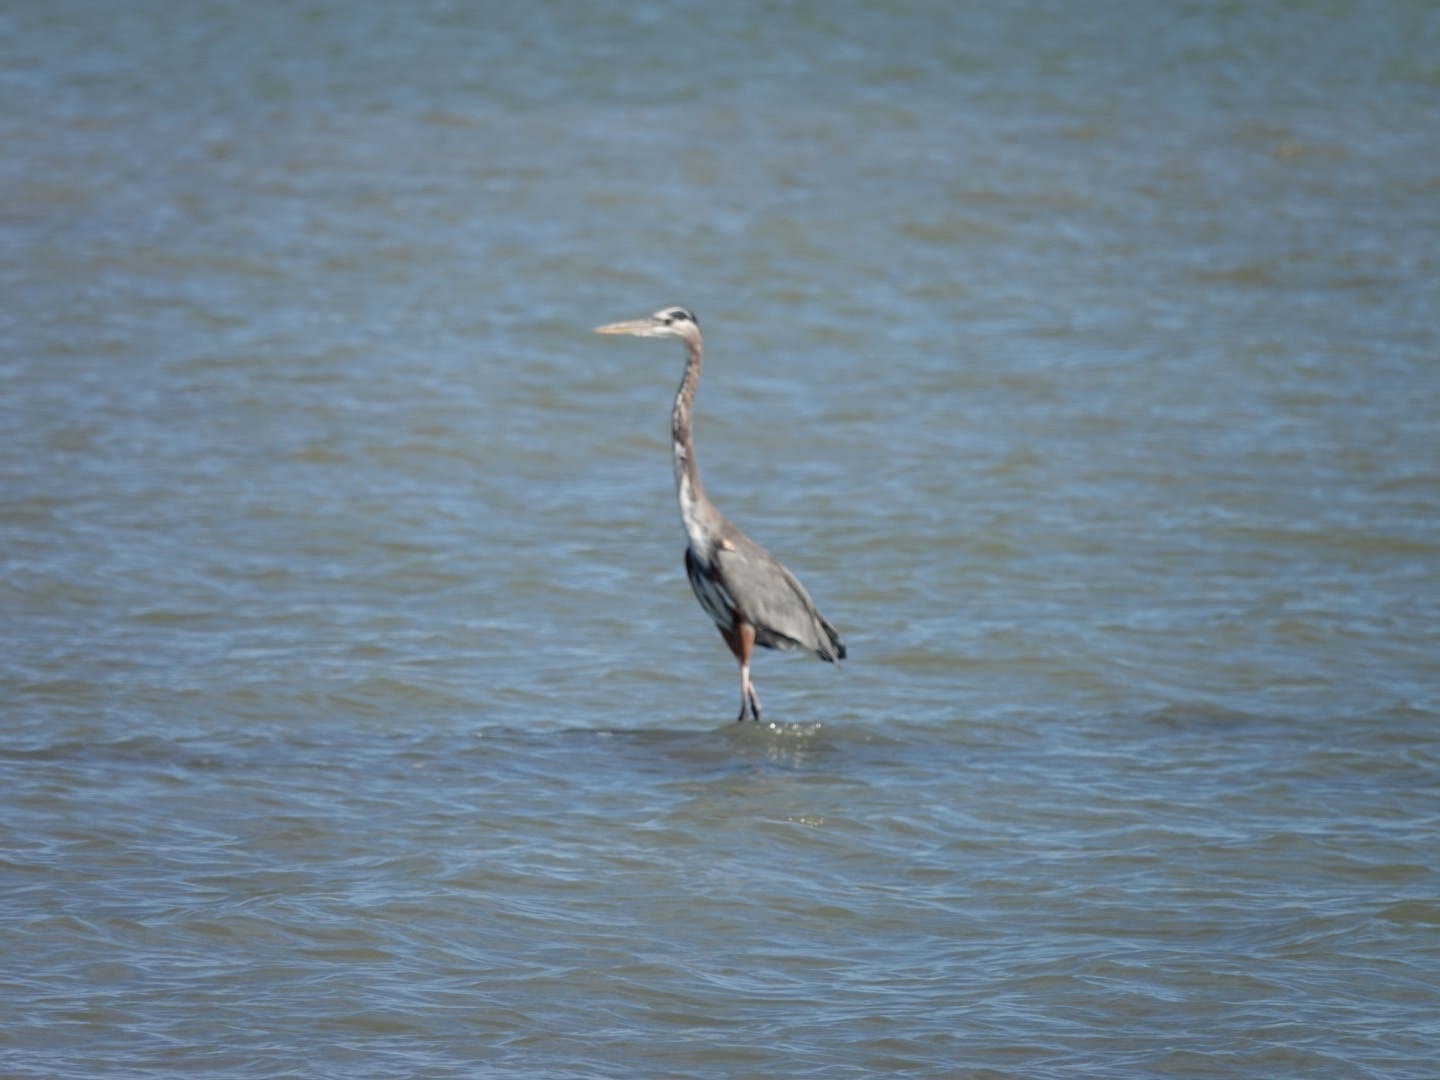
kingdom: Animalia
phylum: Chordata
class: Aves
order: Pelecaniformes
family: Ardeidae
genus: Ardea
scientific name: Ardea herodias
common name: Great blue heron
